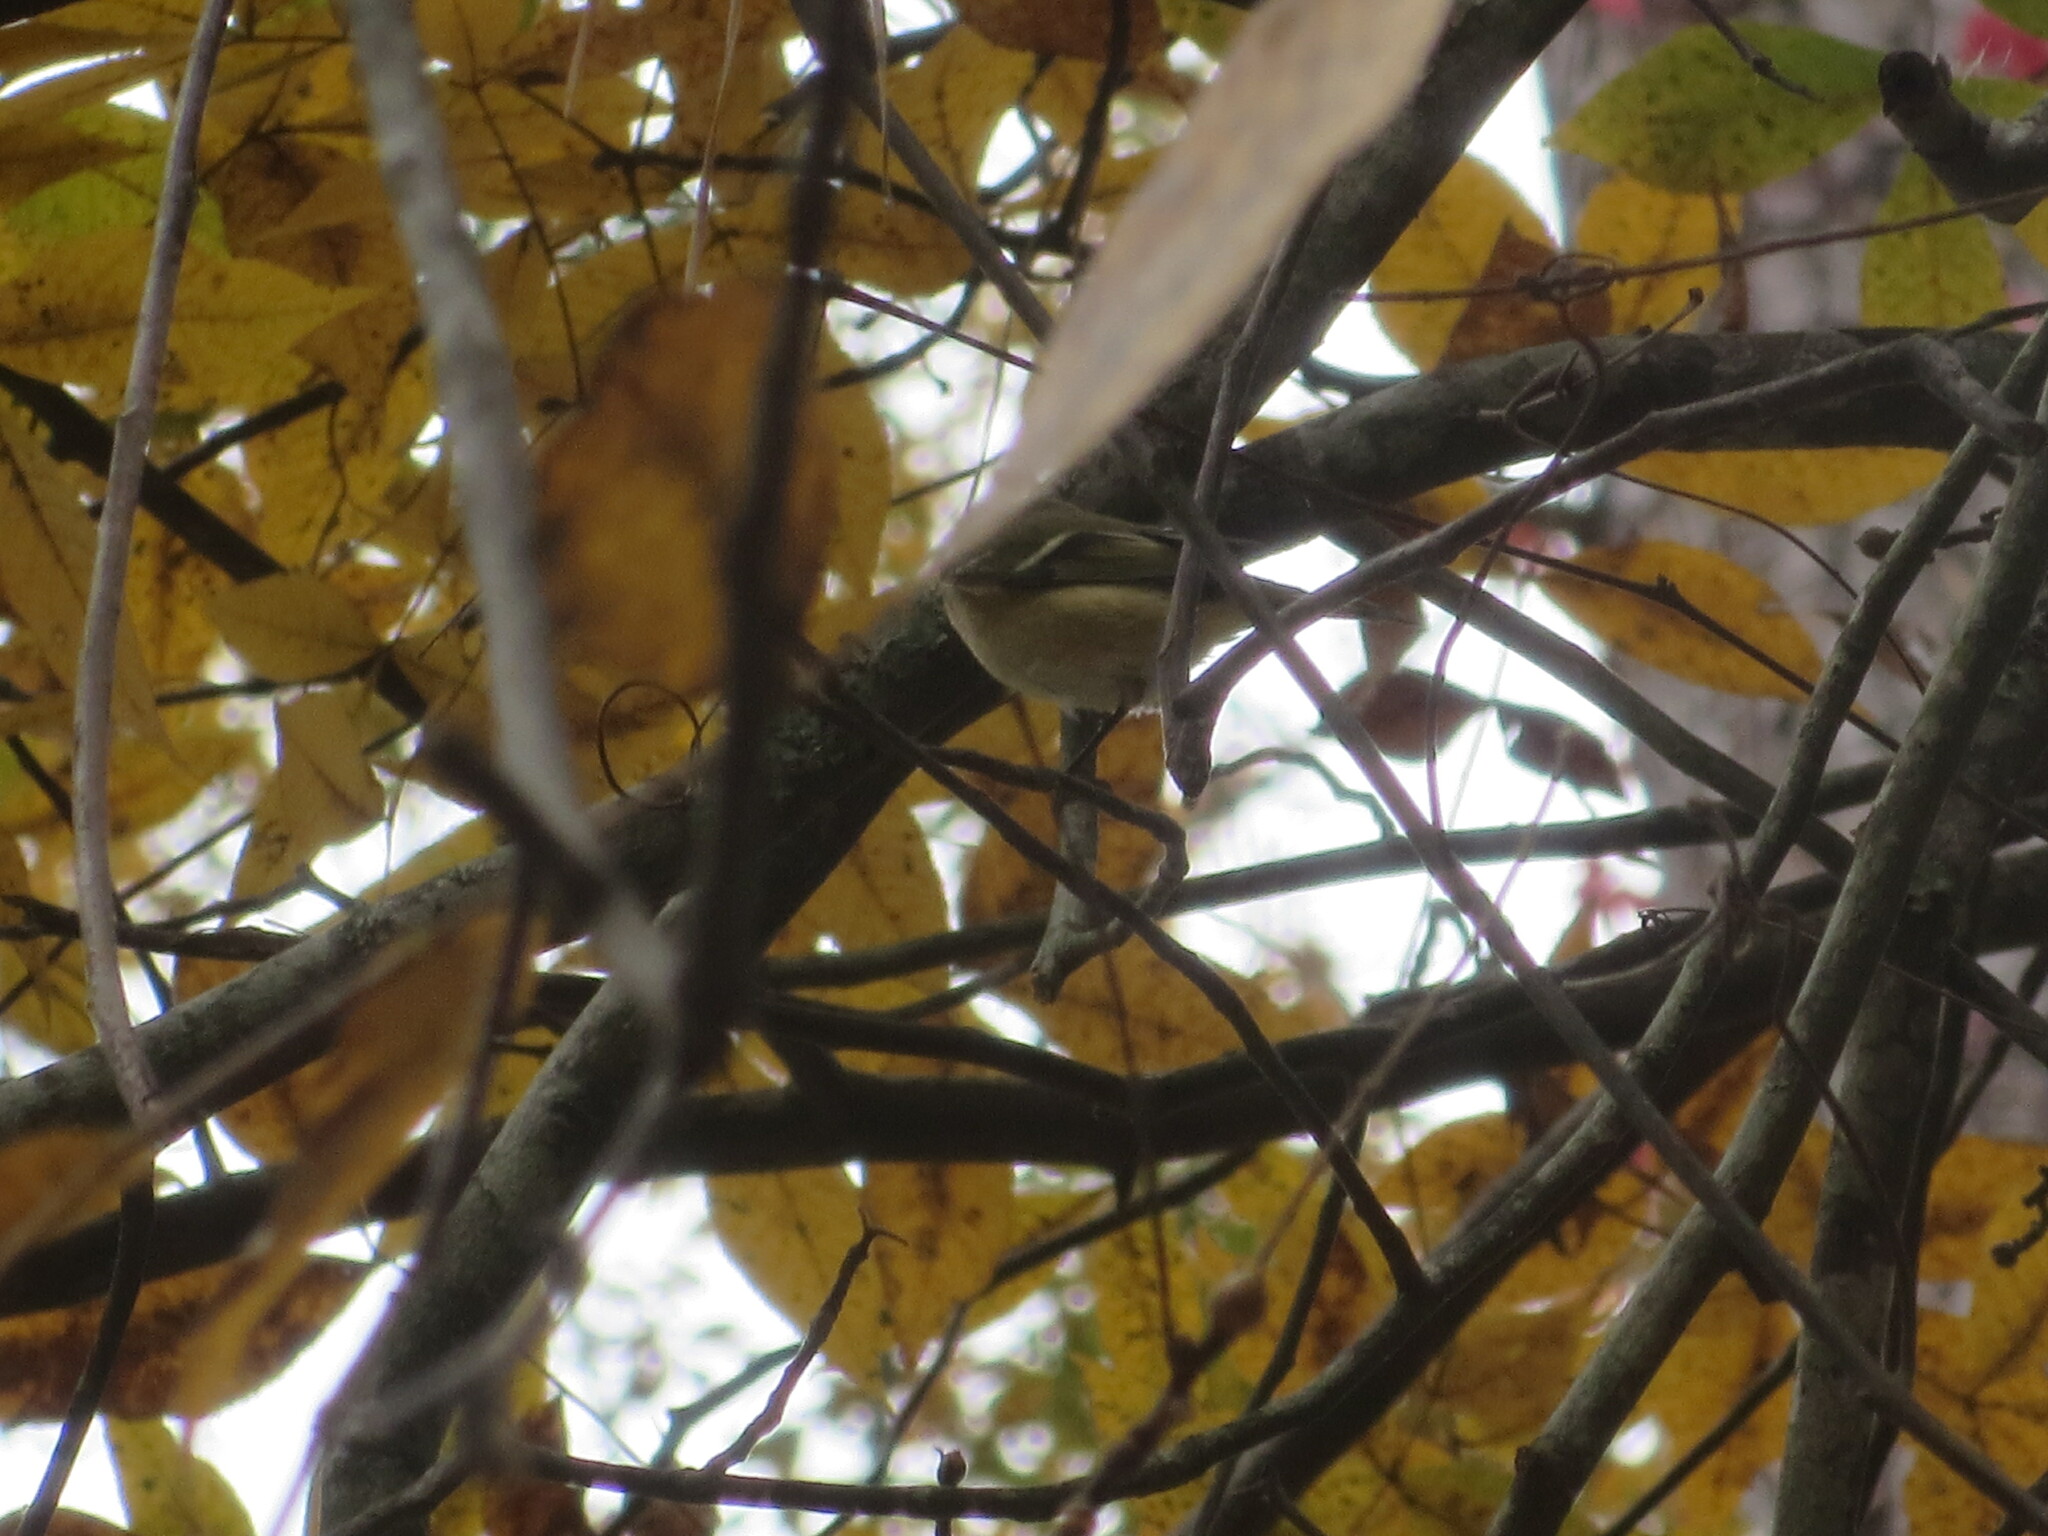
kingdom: Animalia
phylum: Chordata
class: Aves
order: Passeriformes
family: Regulidae
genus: Regulus
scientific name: Regulus calendula
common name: Ruby-crowned kinglet
